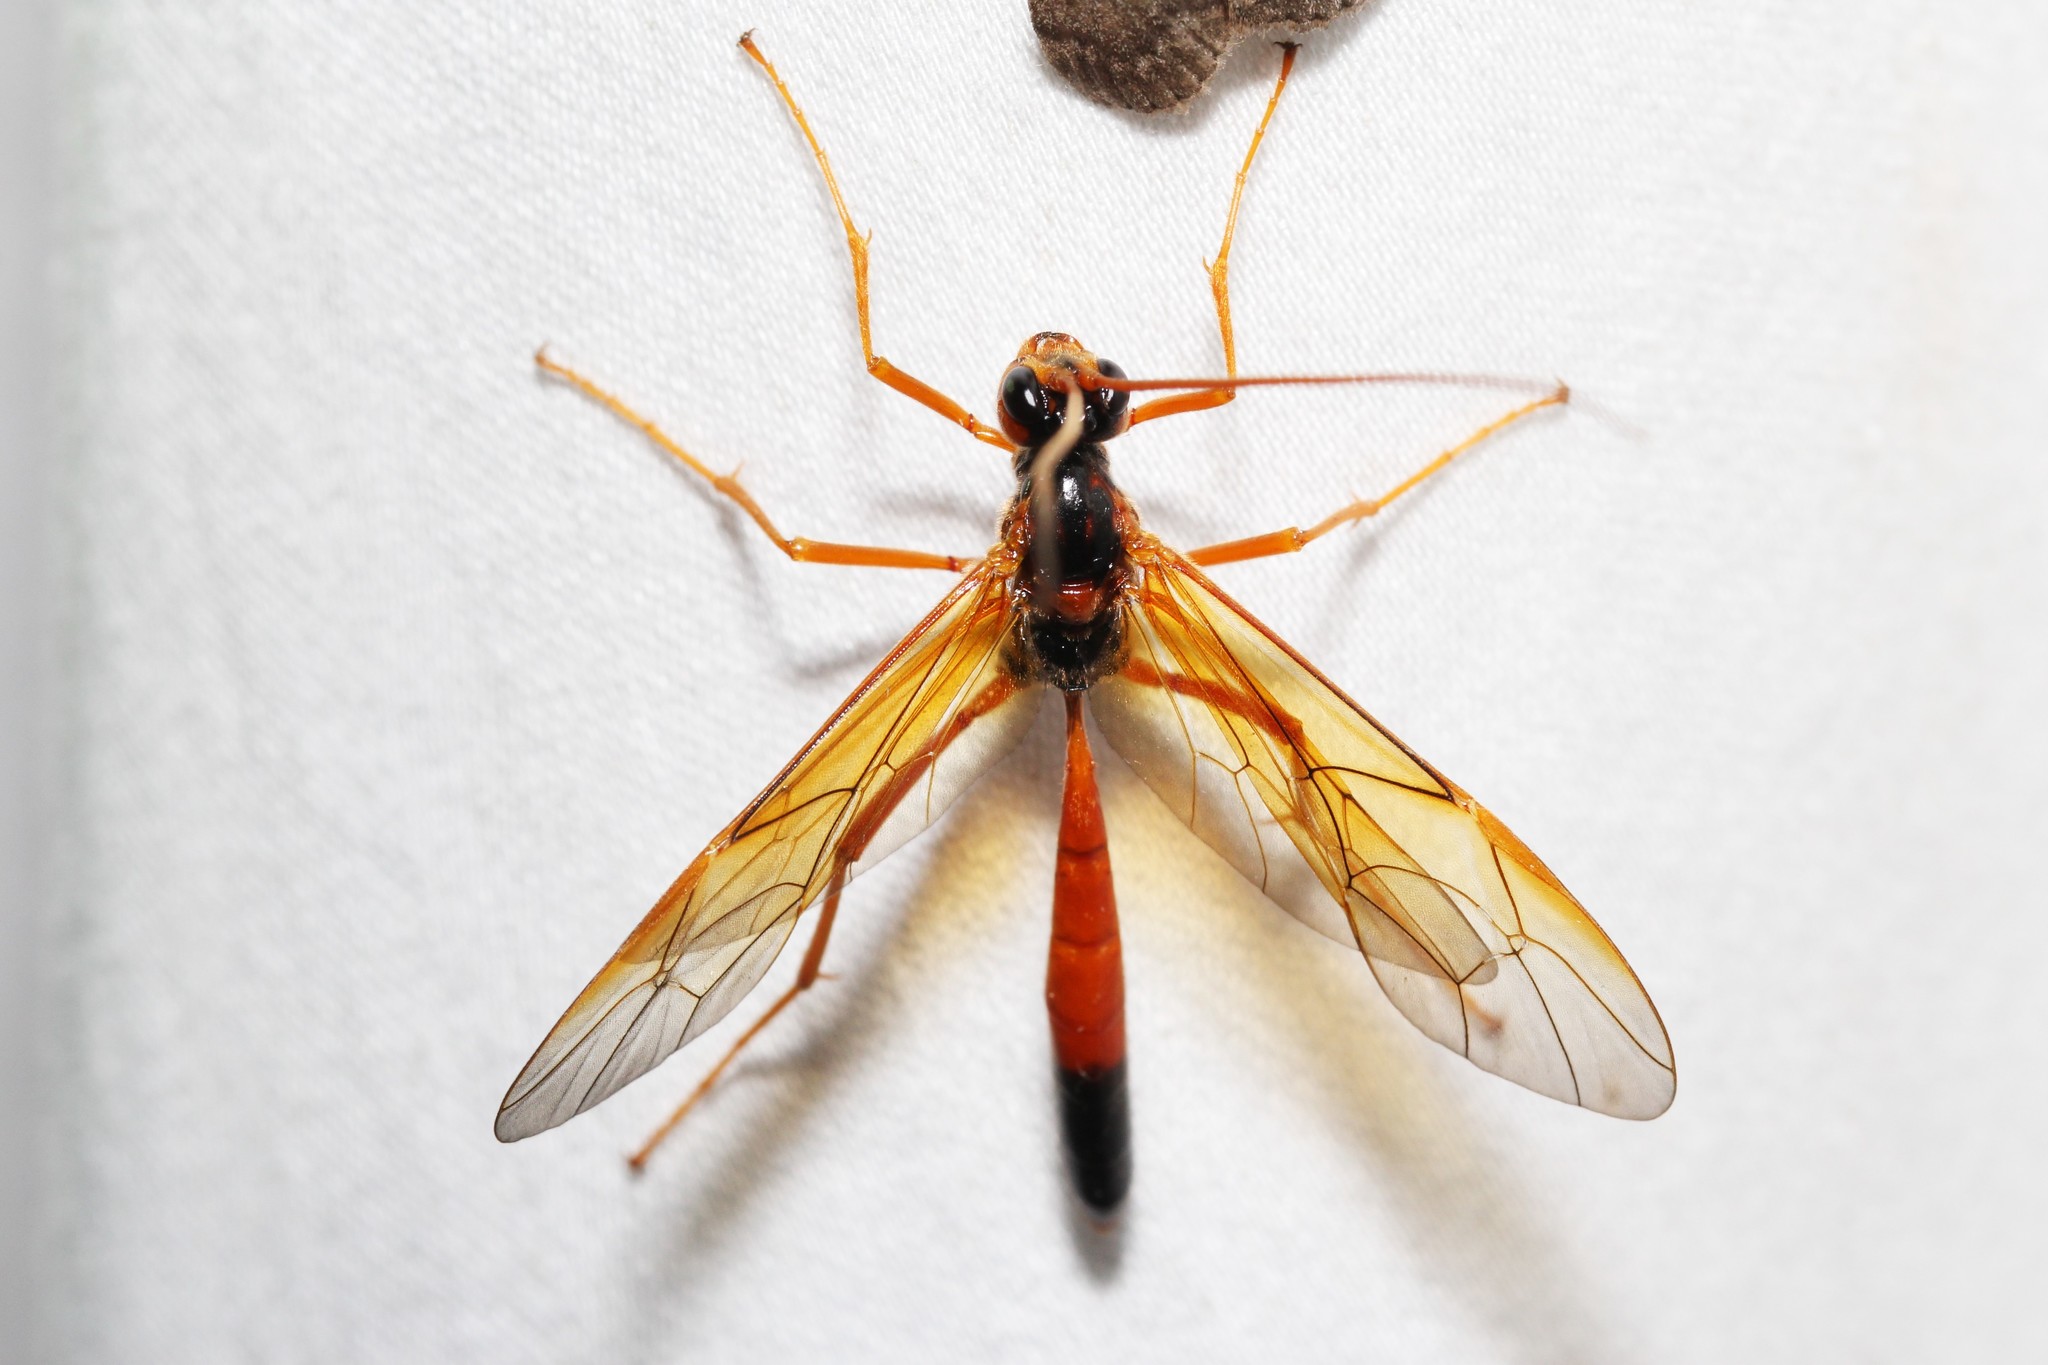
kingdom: Animalia
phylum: Arthropoda
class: Insecta
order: Hymenoptera
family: Ichneumonidae
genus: Opheltes
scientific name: Opheltes glaucopterus
